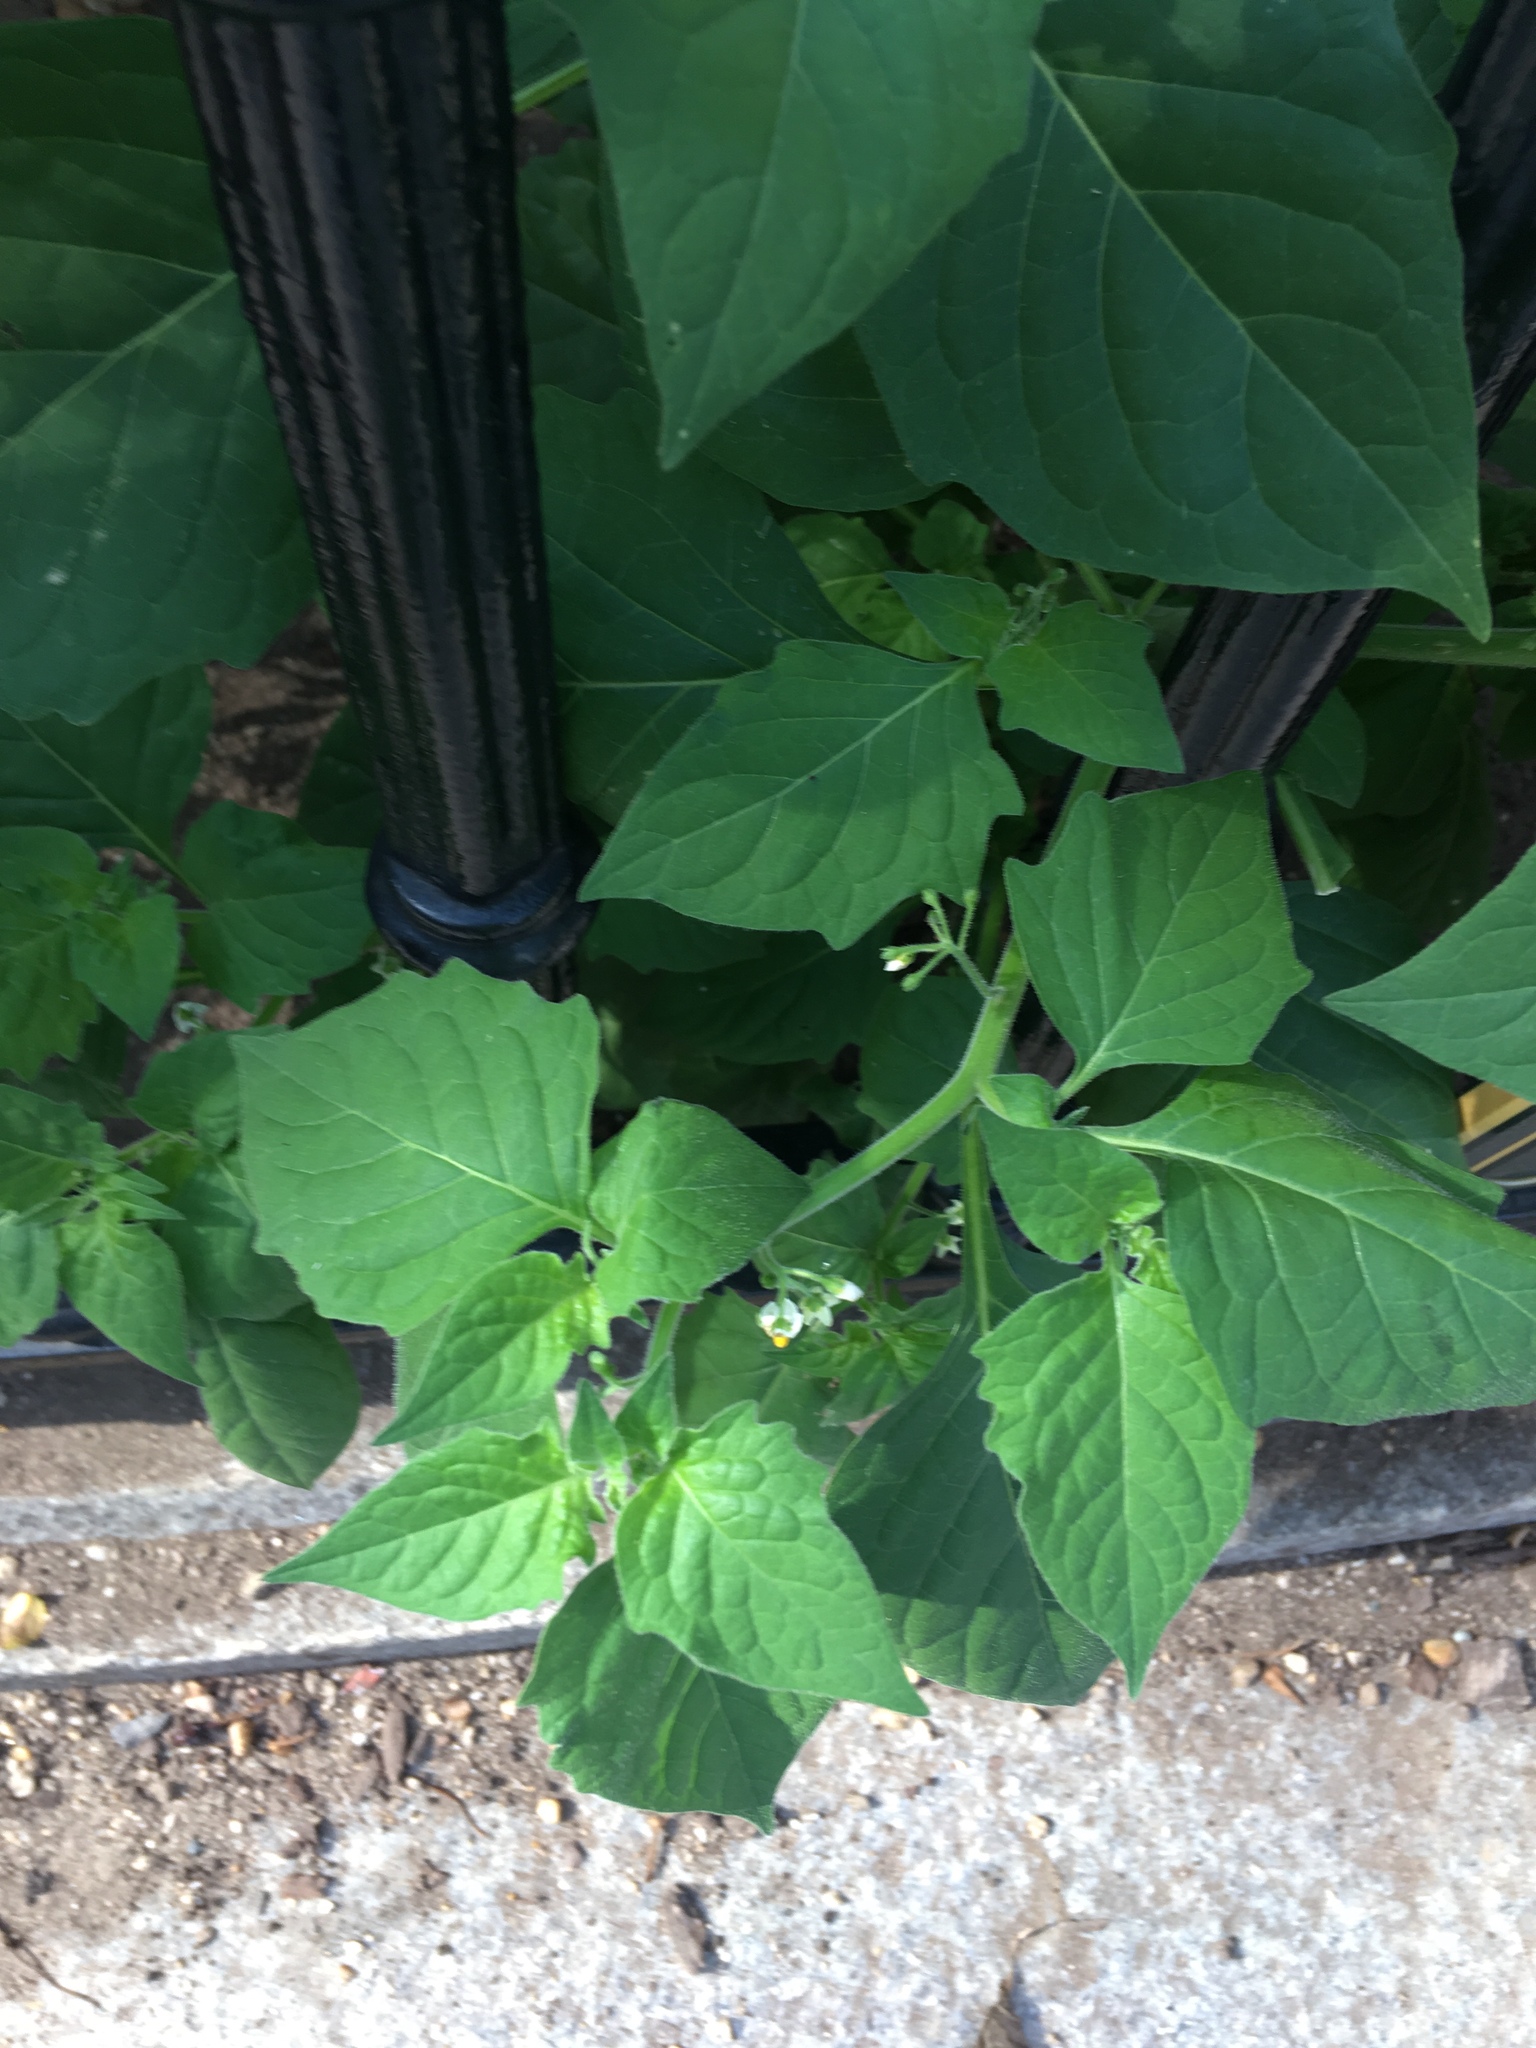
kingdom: Plantae
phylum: Tracheophyta
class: Magnoliopsida
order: Solanales
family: Solanaceae
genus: Solanum
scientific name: Solanum nigrum
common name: Black nightshade
